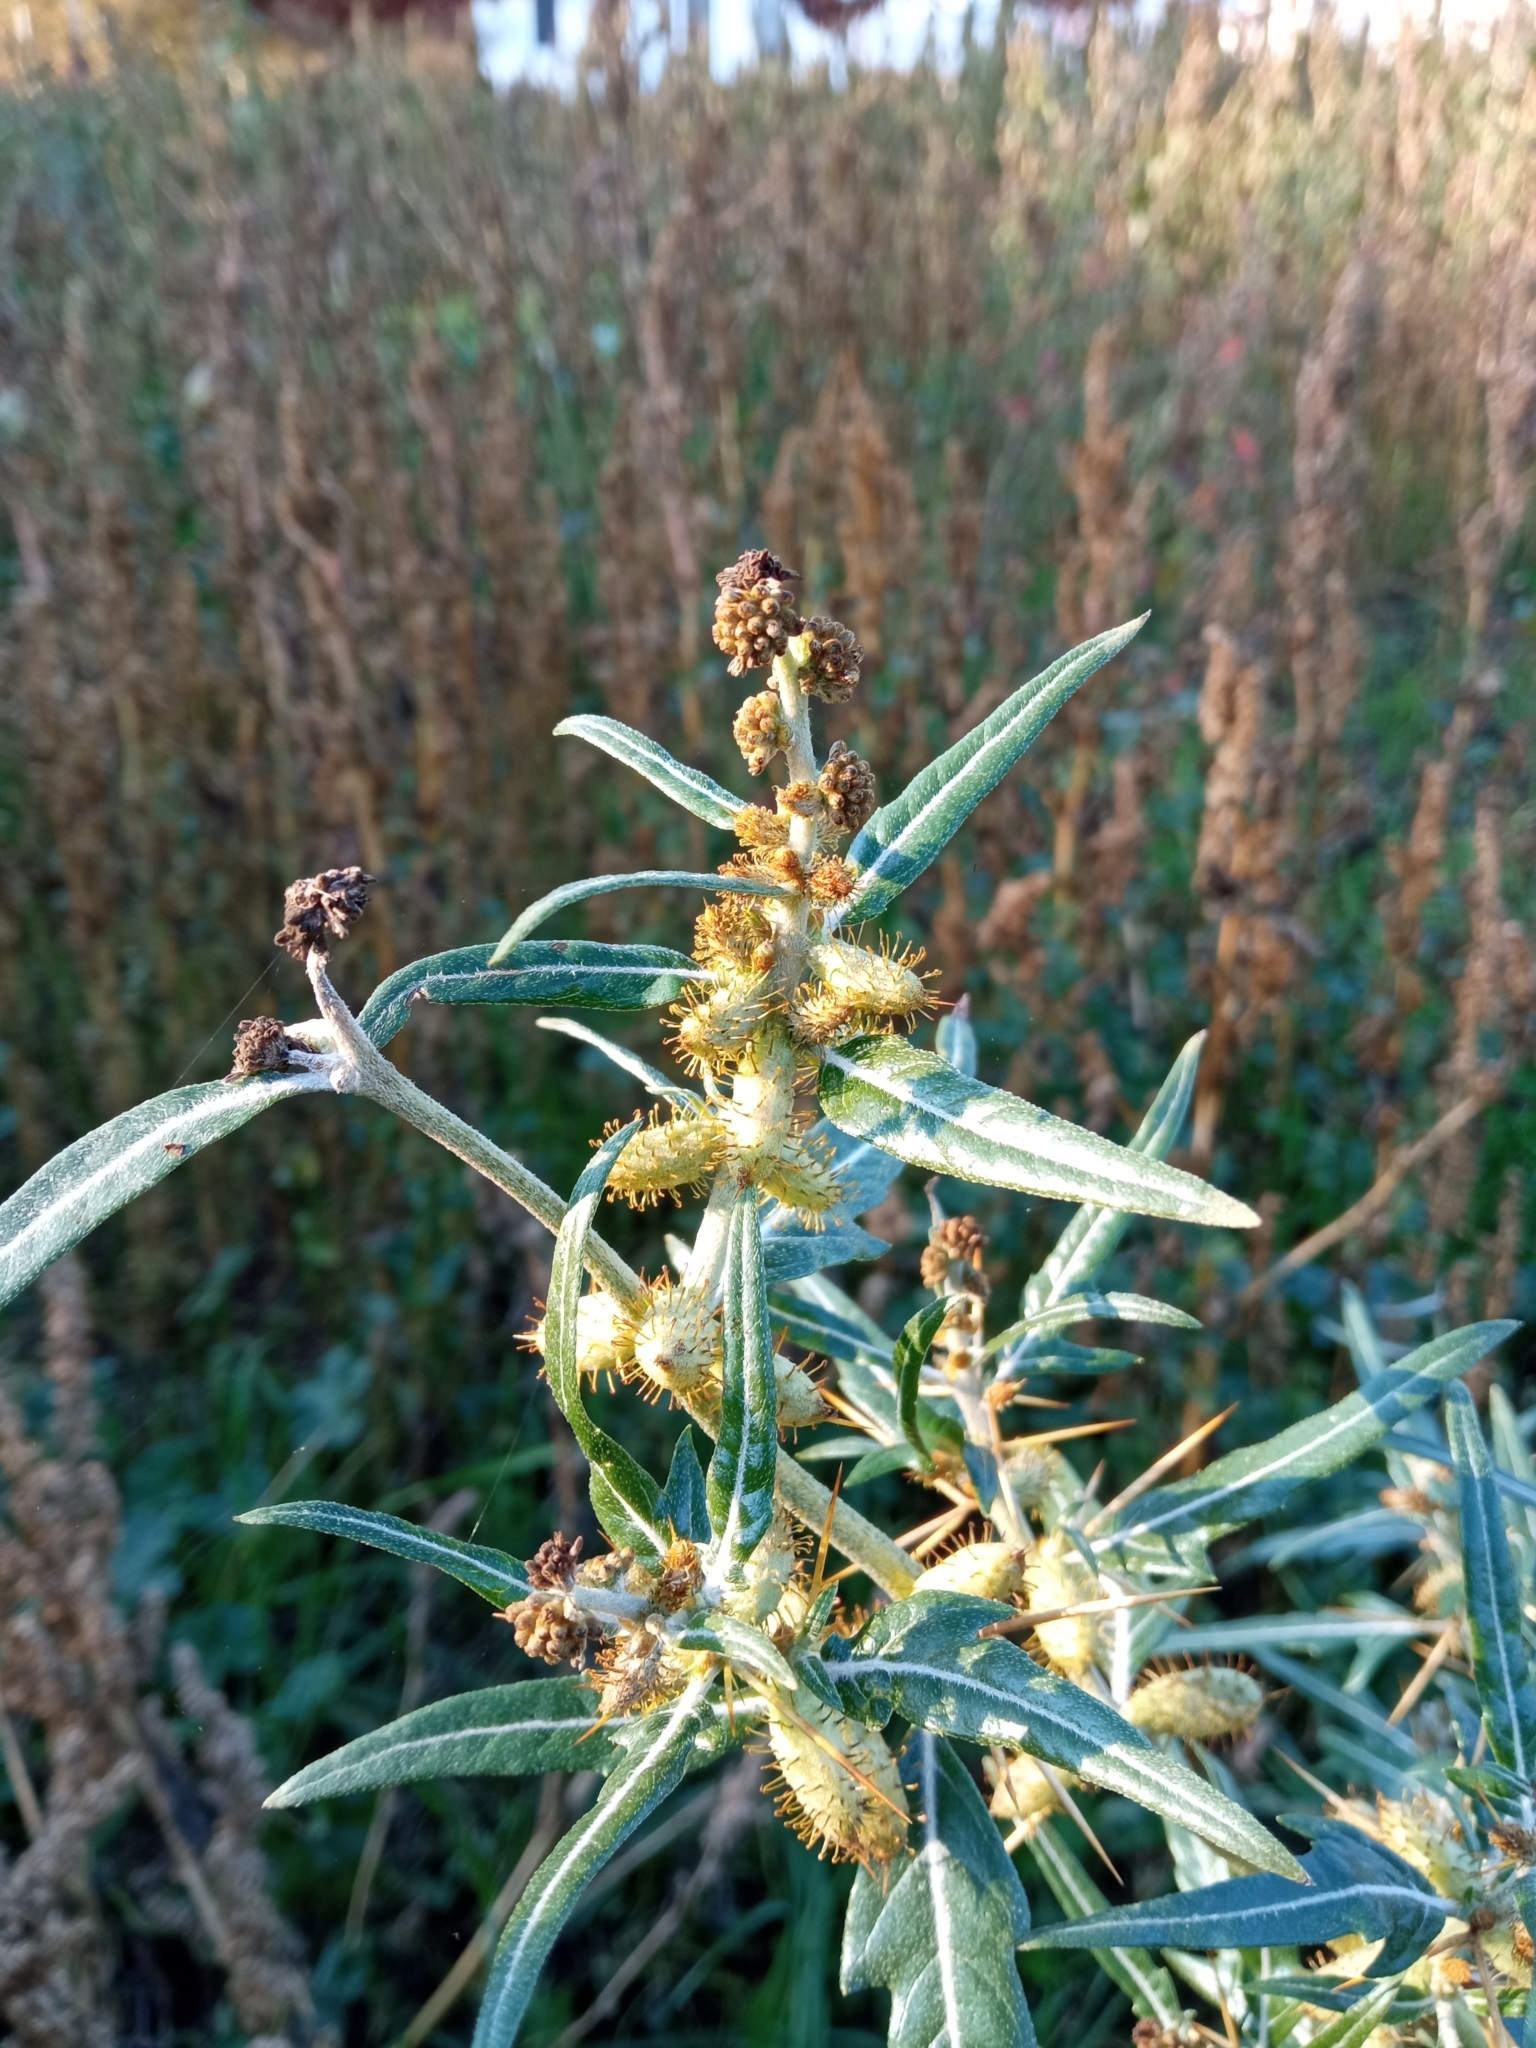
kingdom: Plantae
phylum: Tracheophyta
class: Magnoliopsida
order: Asterales
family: Asteraceae
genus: Xanthium
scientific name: Xanthium spinosum
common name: Spiny cocklebur
